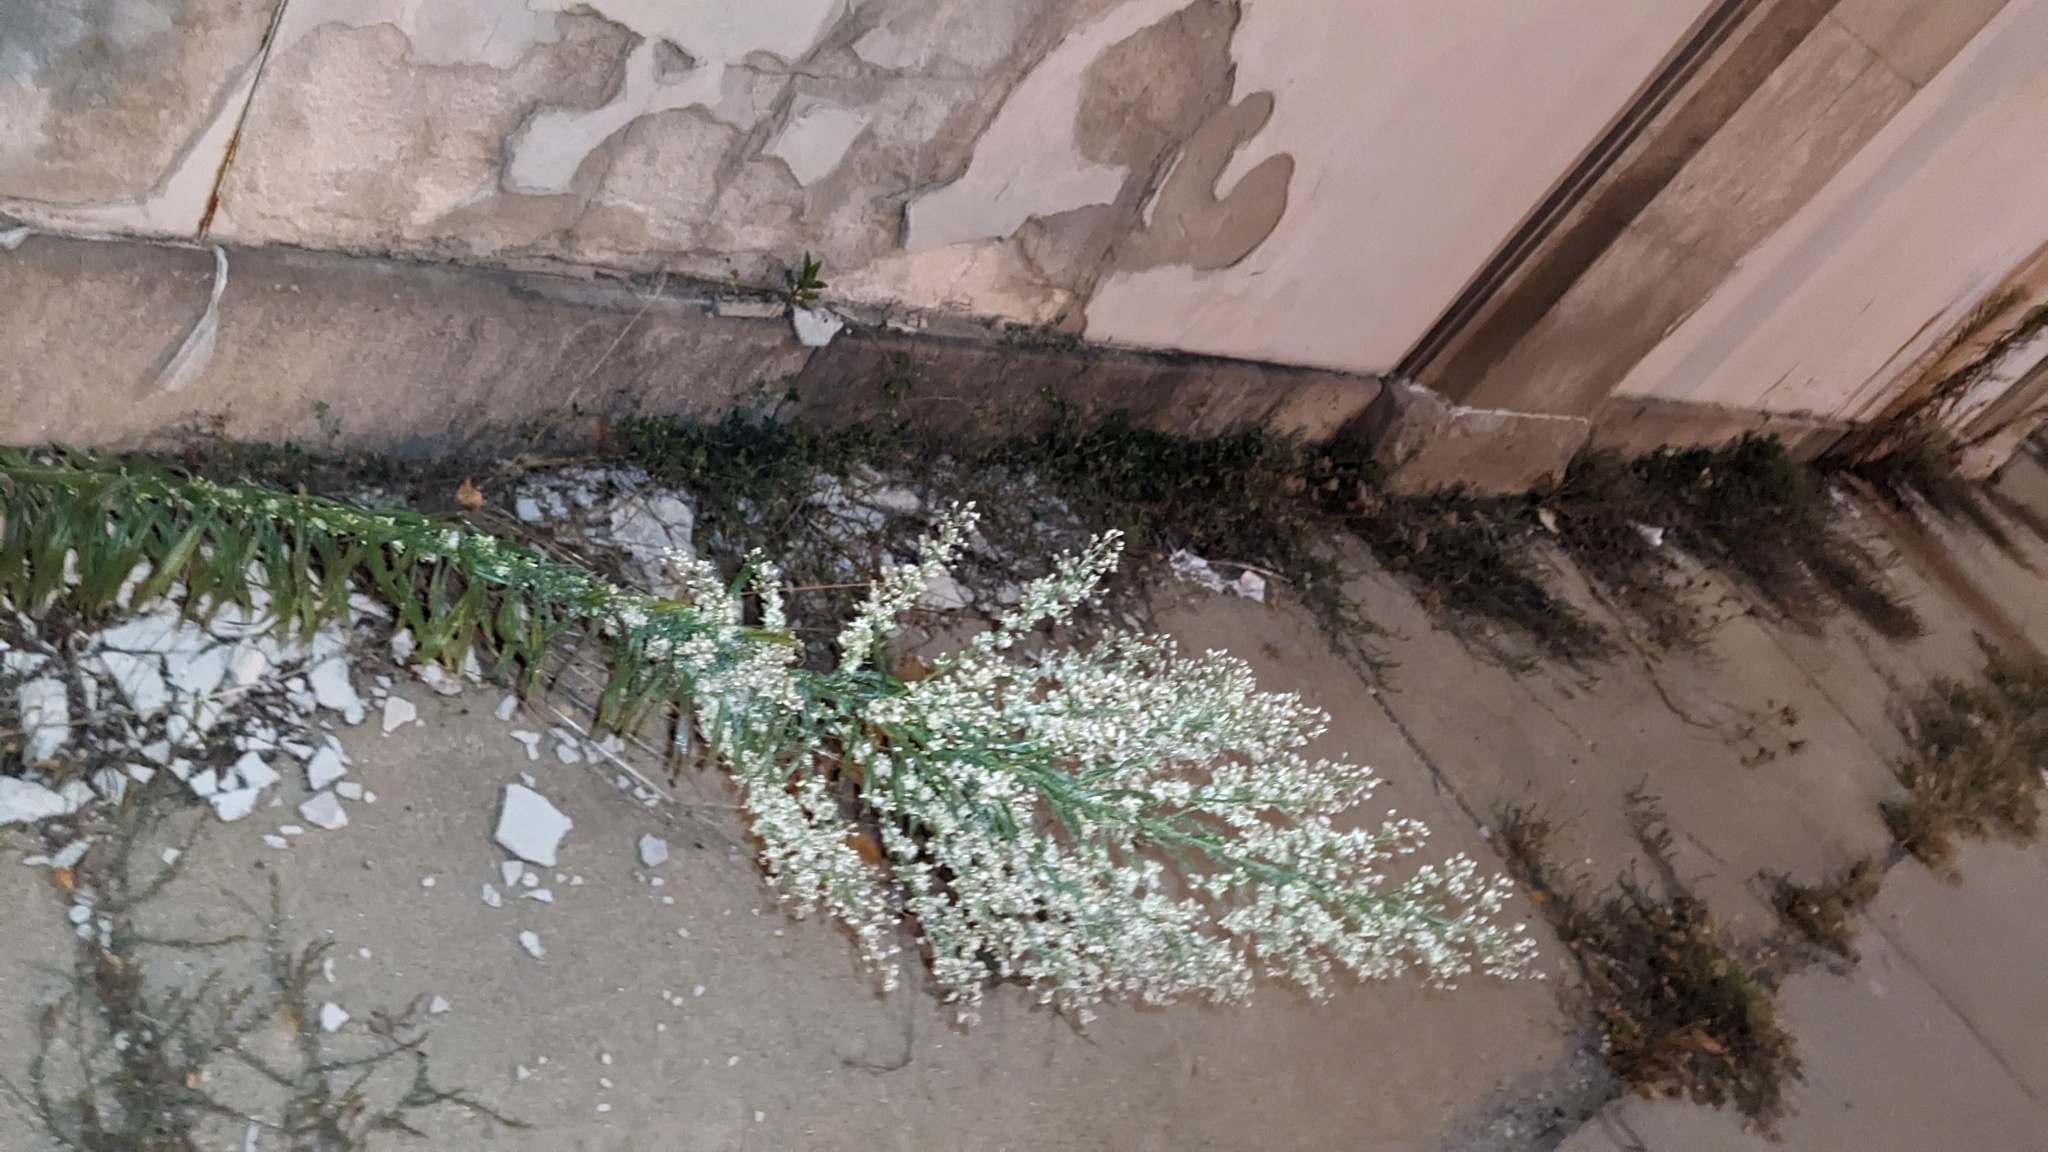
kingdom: Plantae
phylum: Tracheophyta
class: Magnoliopsida
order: Asterales
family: Asteraceae
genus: Erigeron
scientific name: Erigeron canadensis
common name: Canadian fleabane
